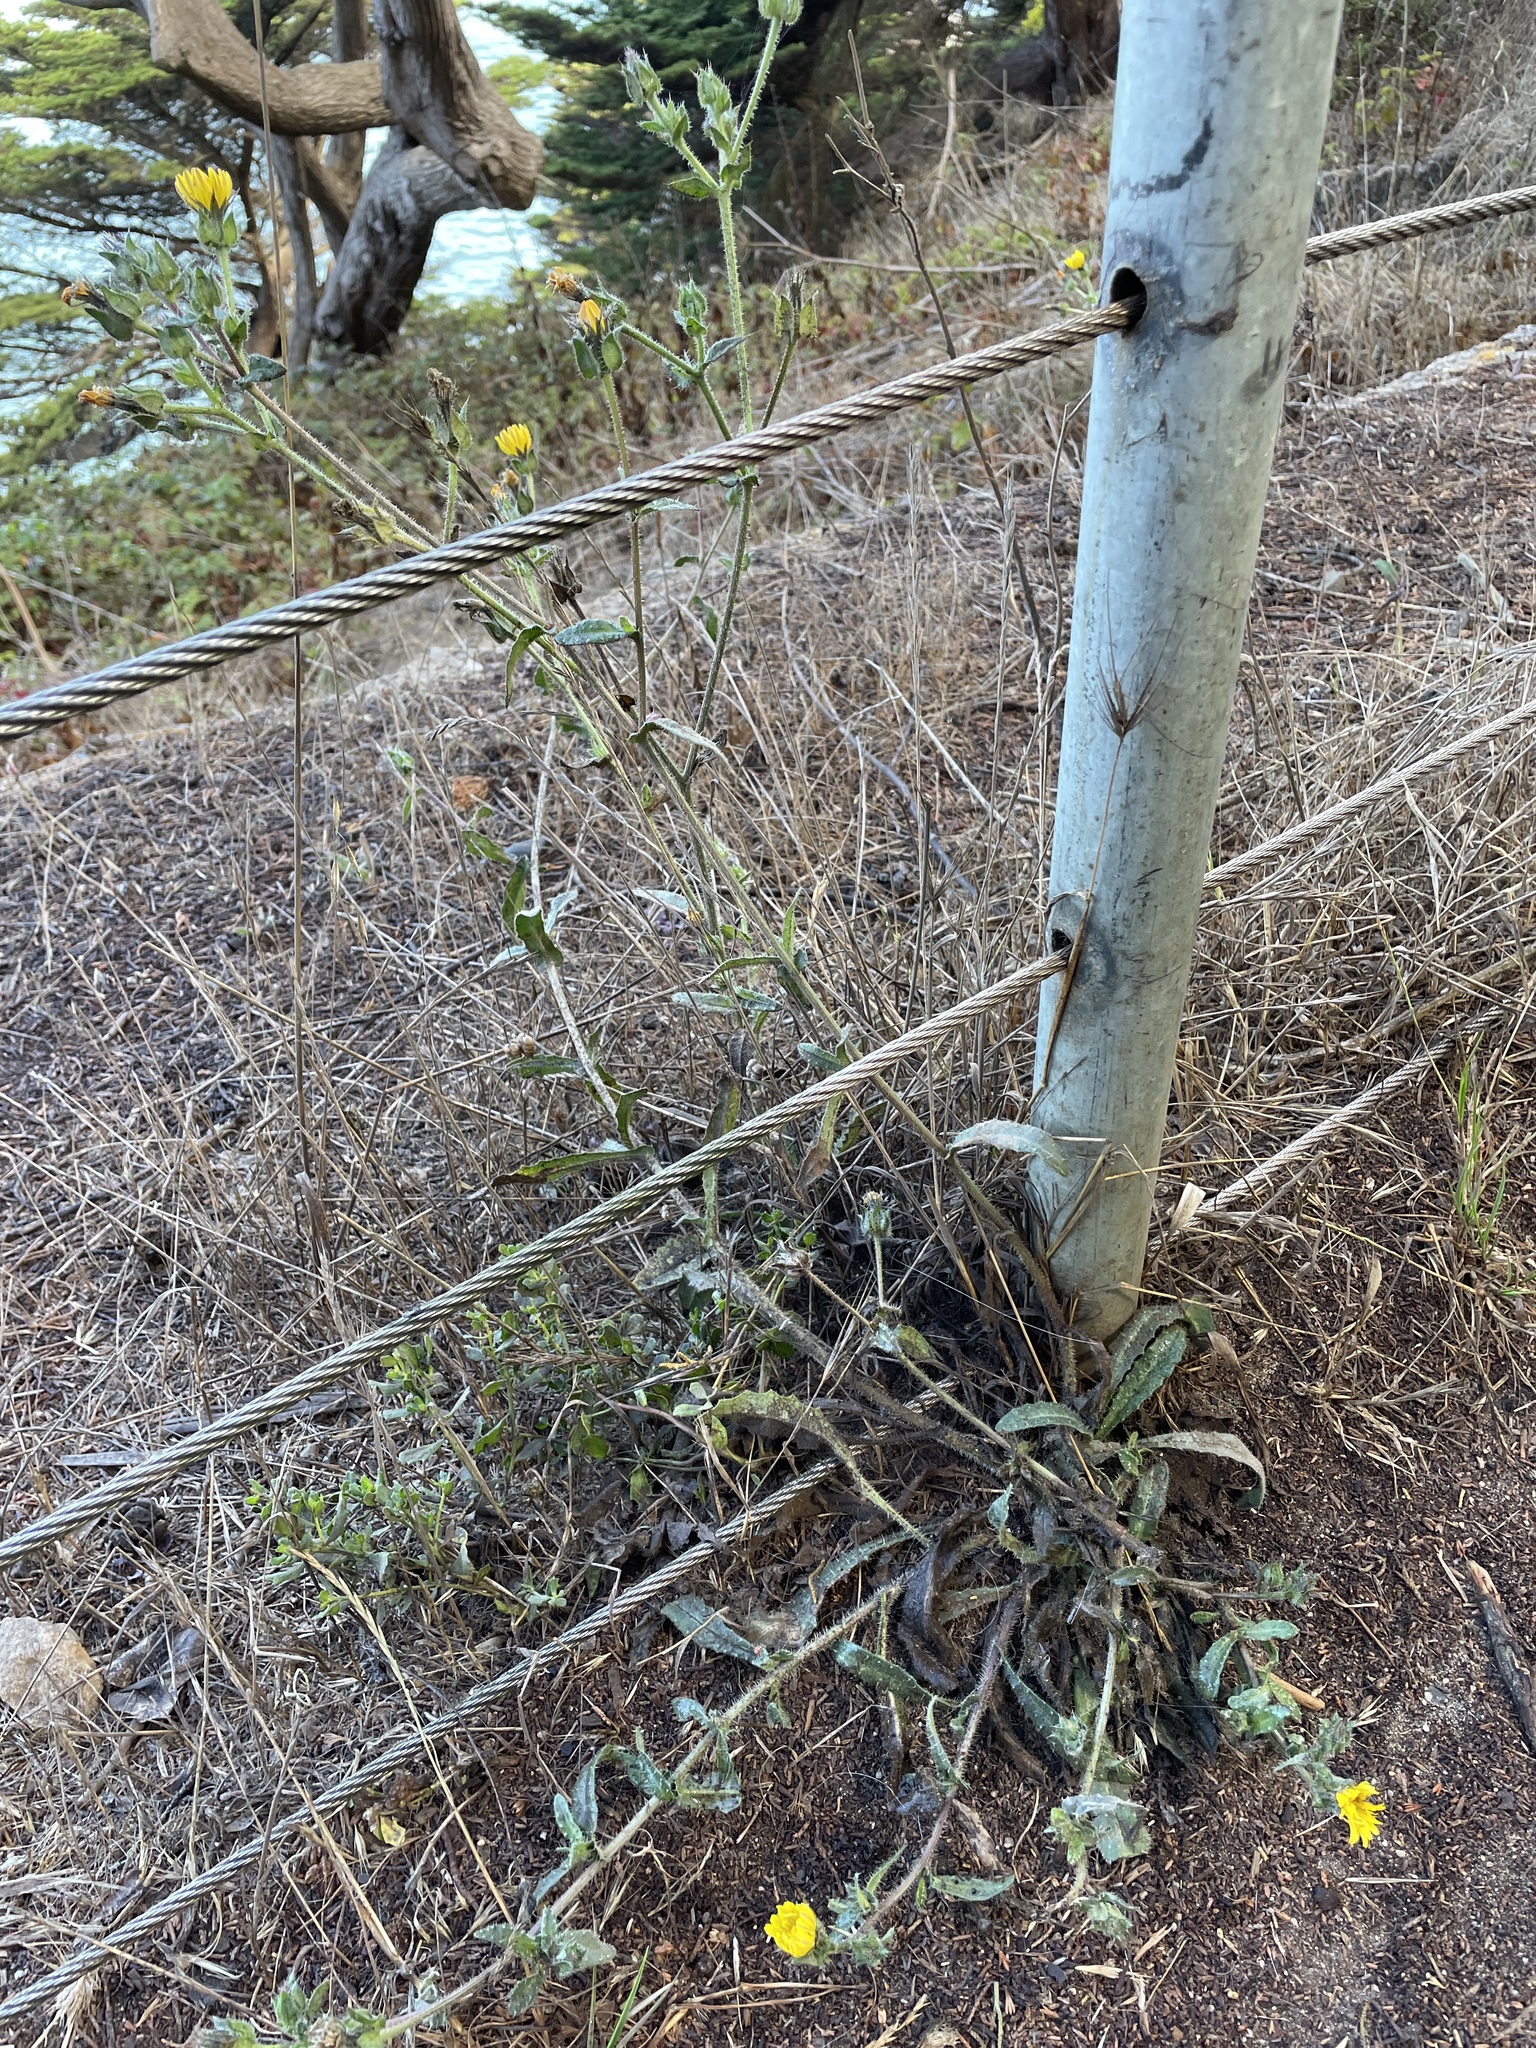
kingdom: Plantae
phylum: Tracheophyta
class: Magnoliopsida
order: Asterales
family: Asteraceae
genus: Helminthotheca
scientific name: Helminthotheca echioides
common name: Ox-tongue
